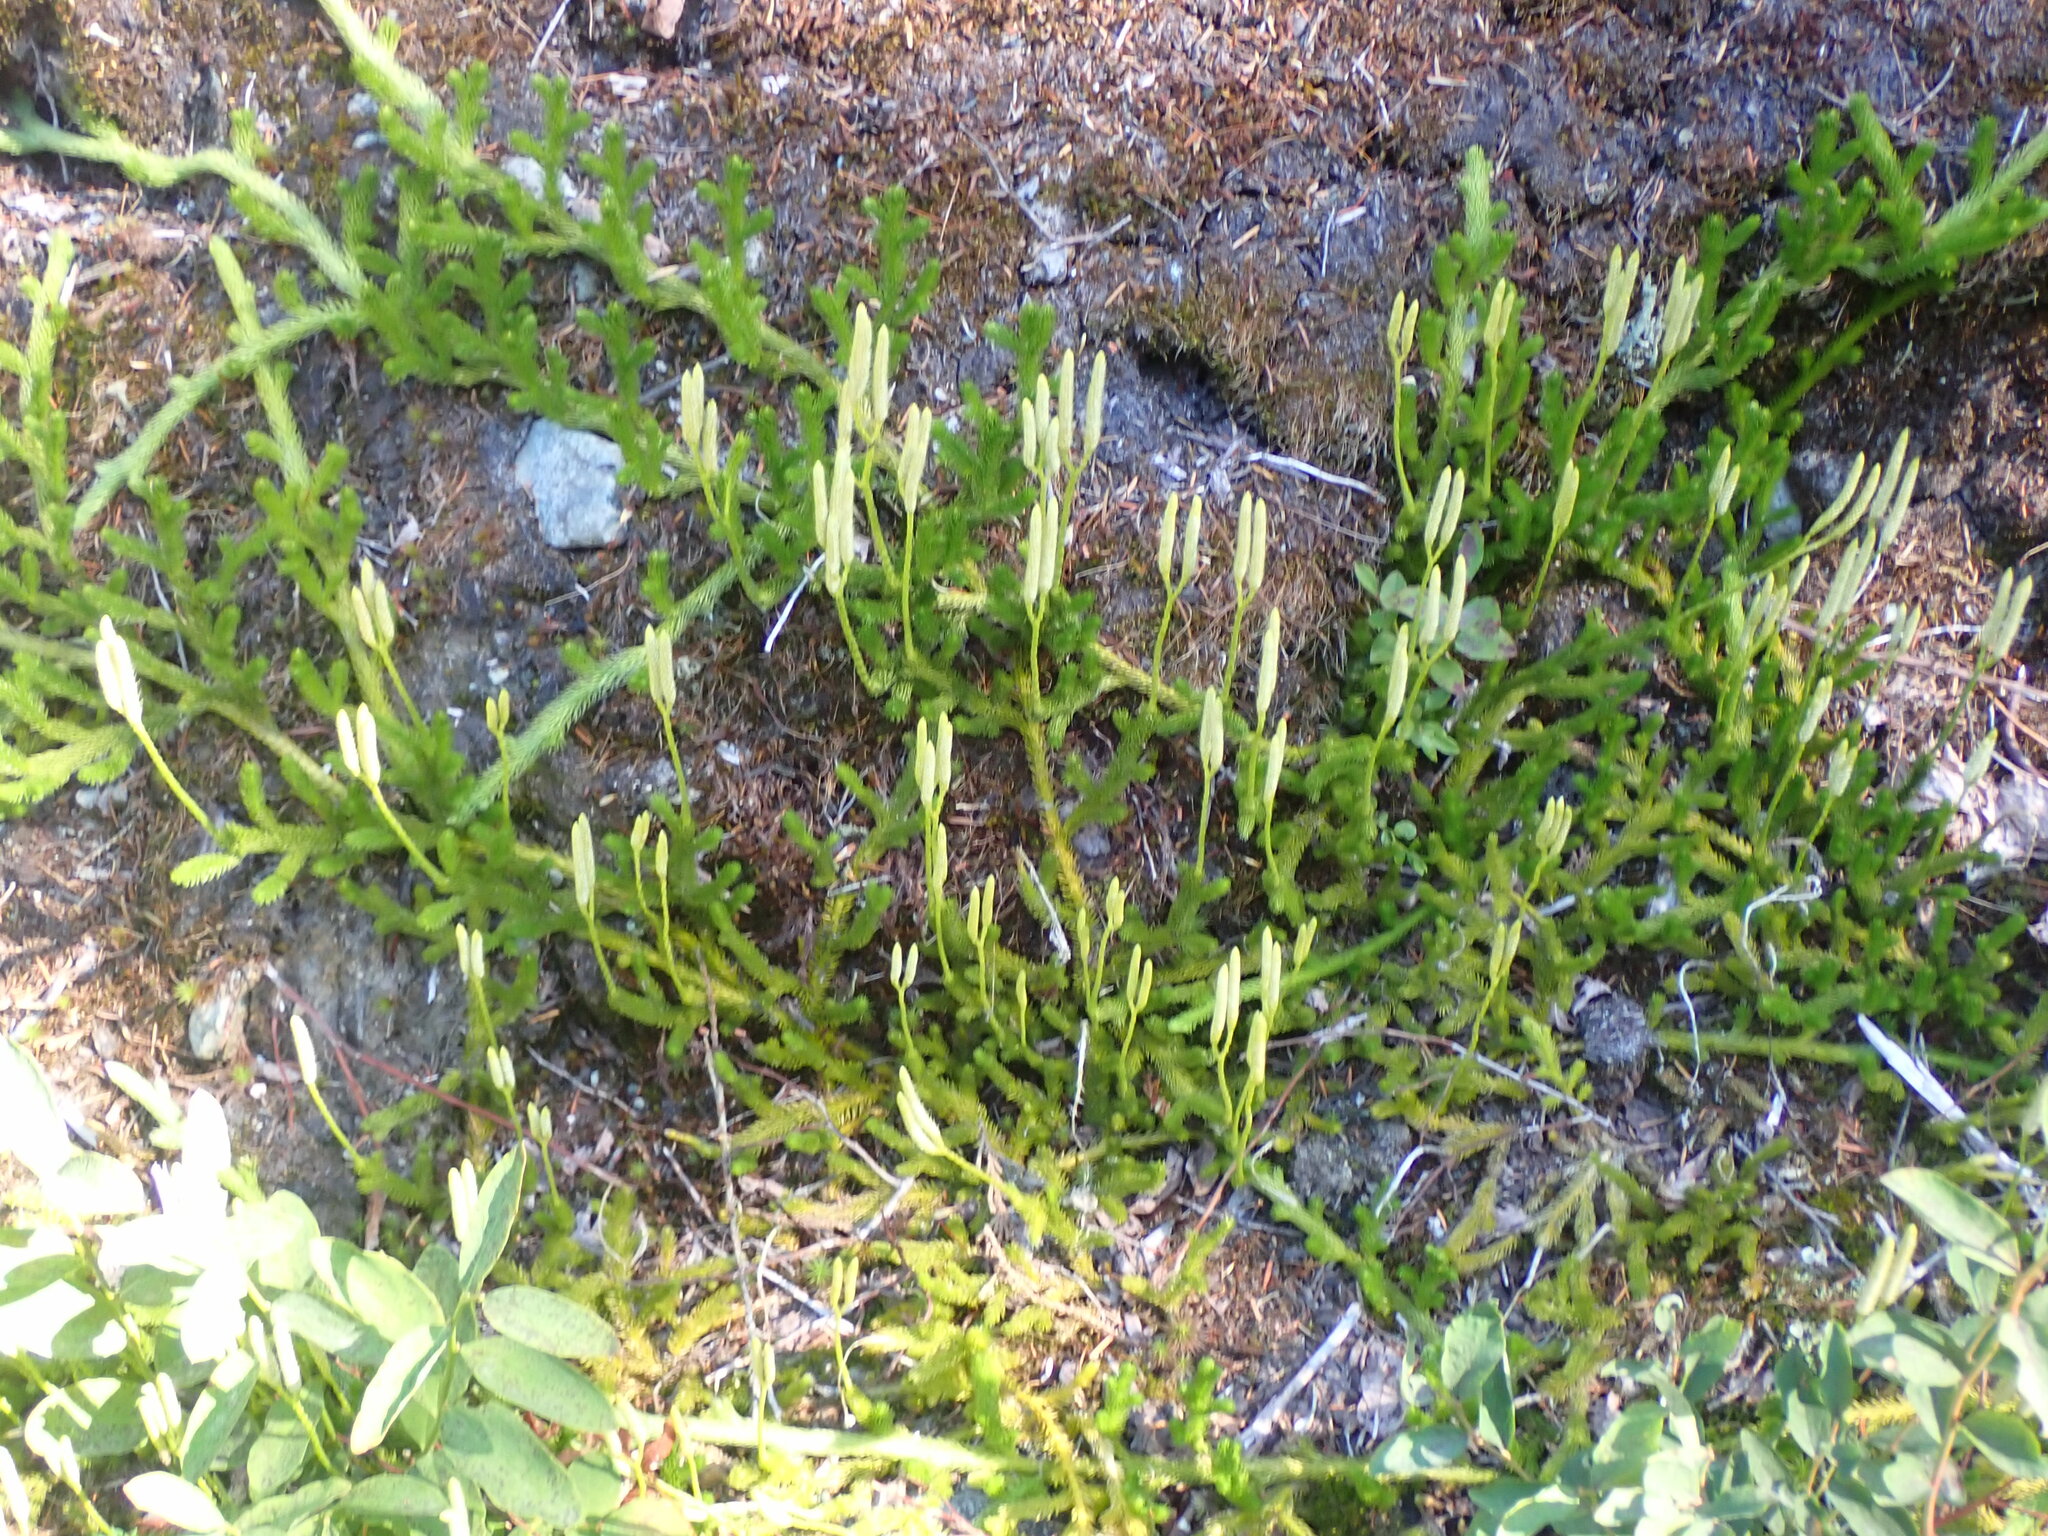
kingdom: Plantae
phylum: Tracheophyta
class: Lycopodiopsida
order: Lycopodiales
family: Lycopodiaceae
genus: Lycopodium
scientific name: Lycopodium clavatum
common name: Stag's-horn clubmoss
